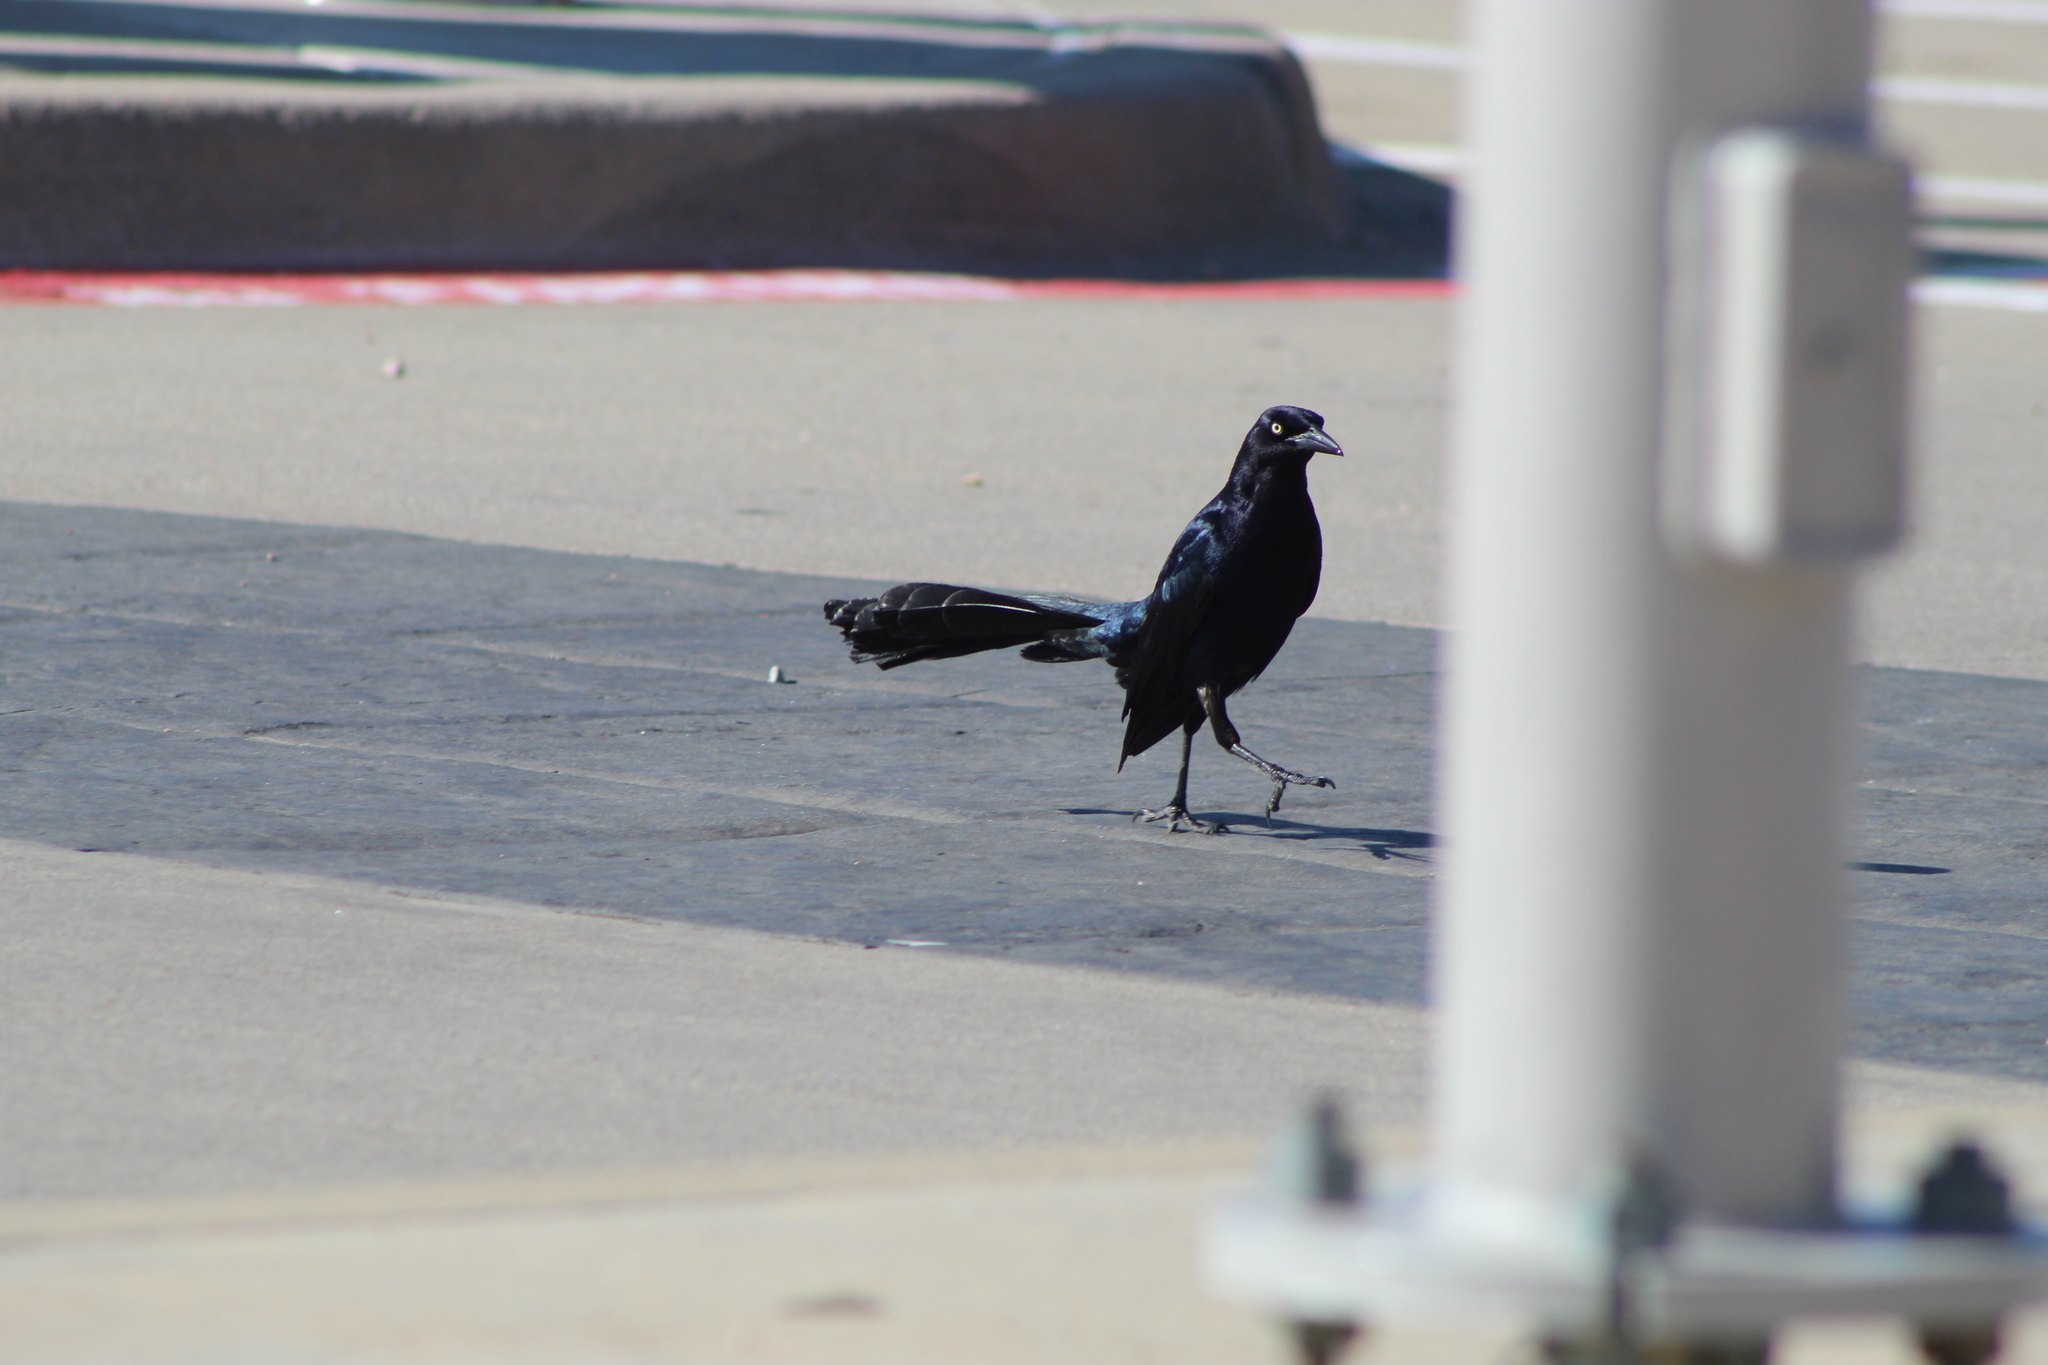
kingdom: Animalia
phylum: Chordata
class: Aves
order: Passeriformes
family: Icteridae
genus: Quiscalus
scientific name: Quiscalus mexicanus
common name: Great-tailed grackle
